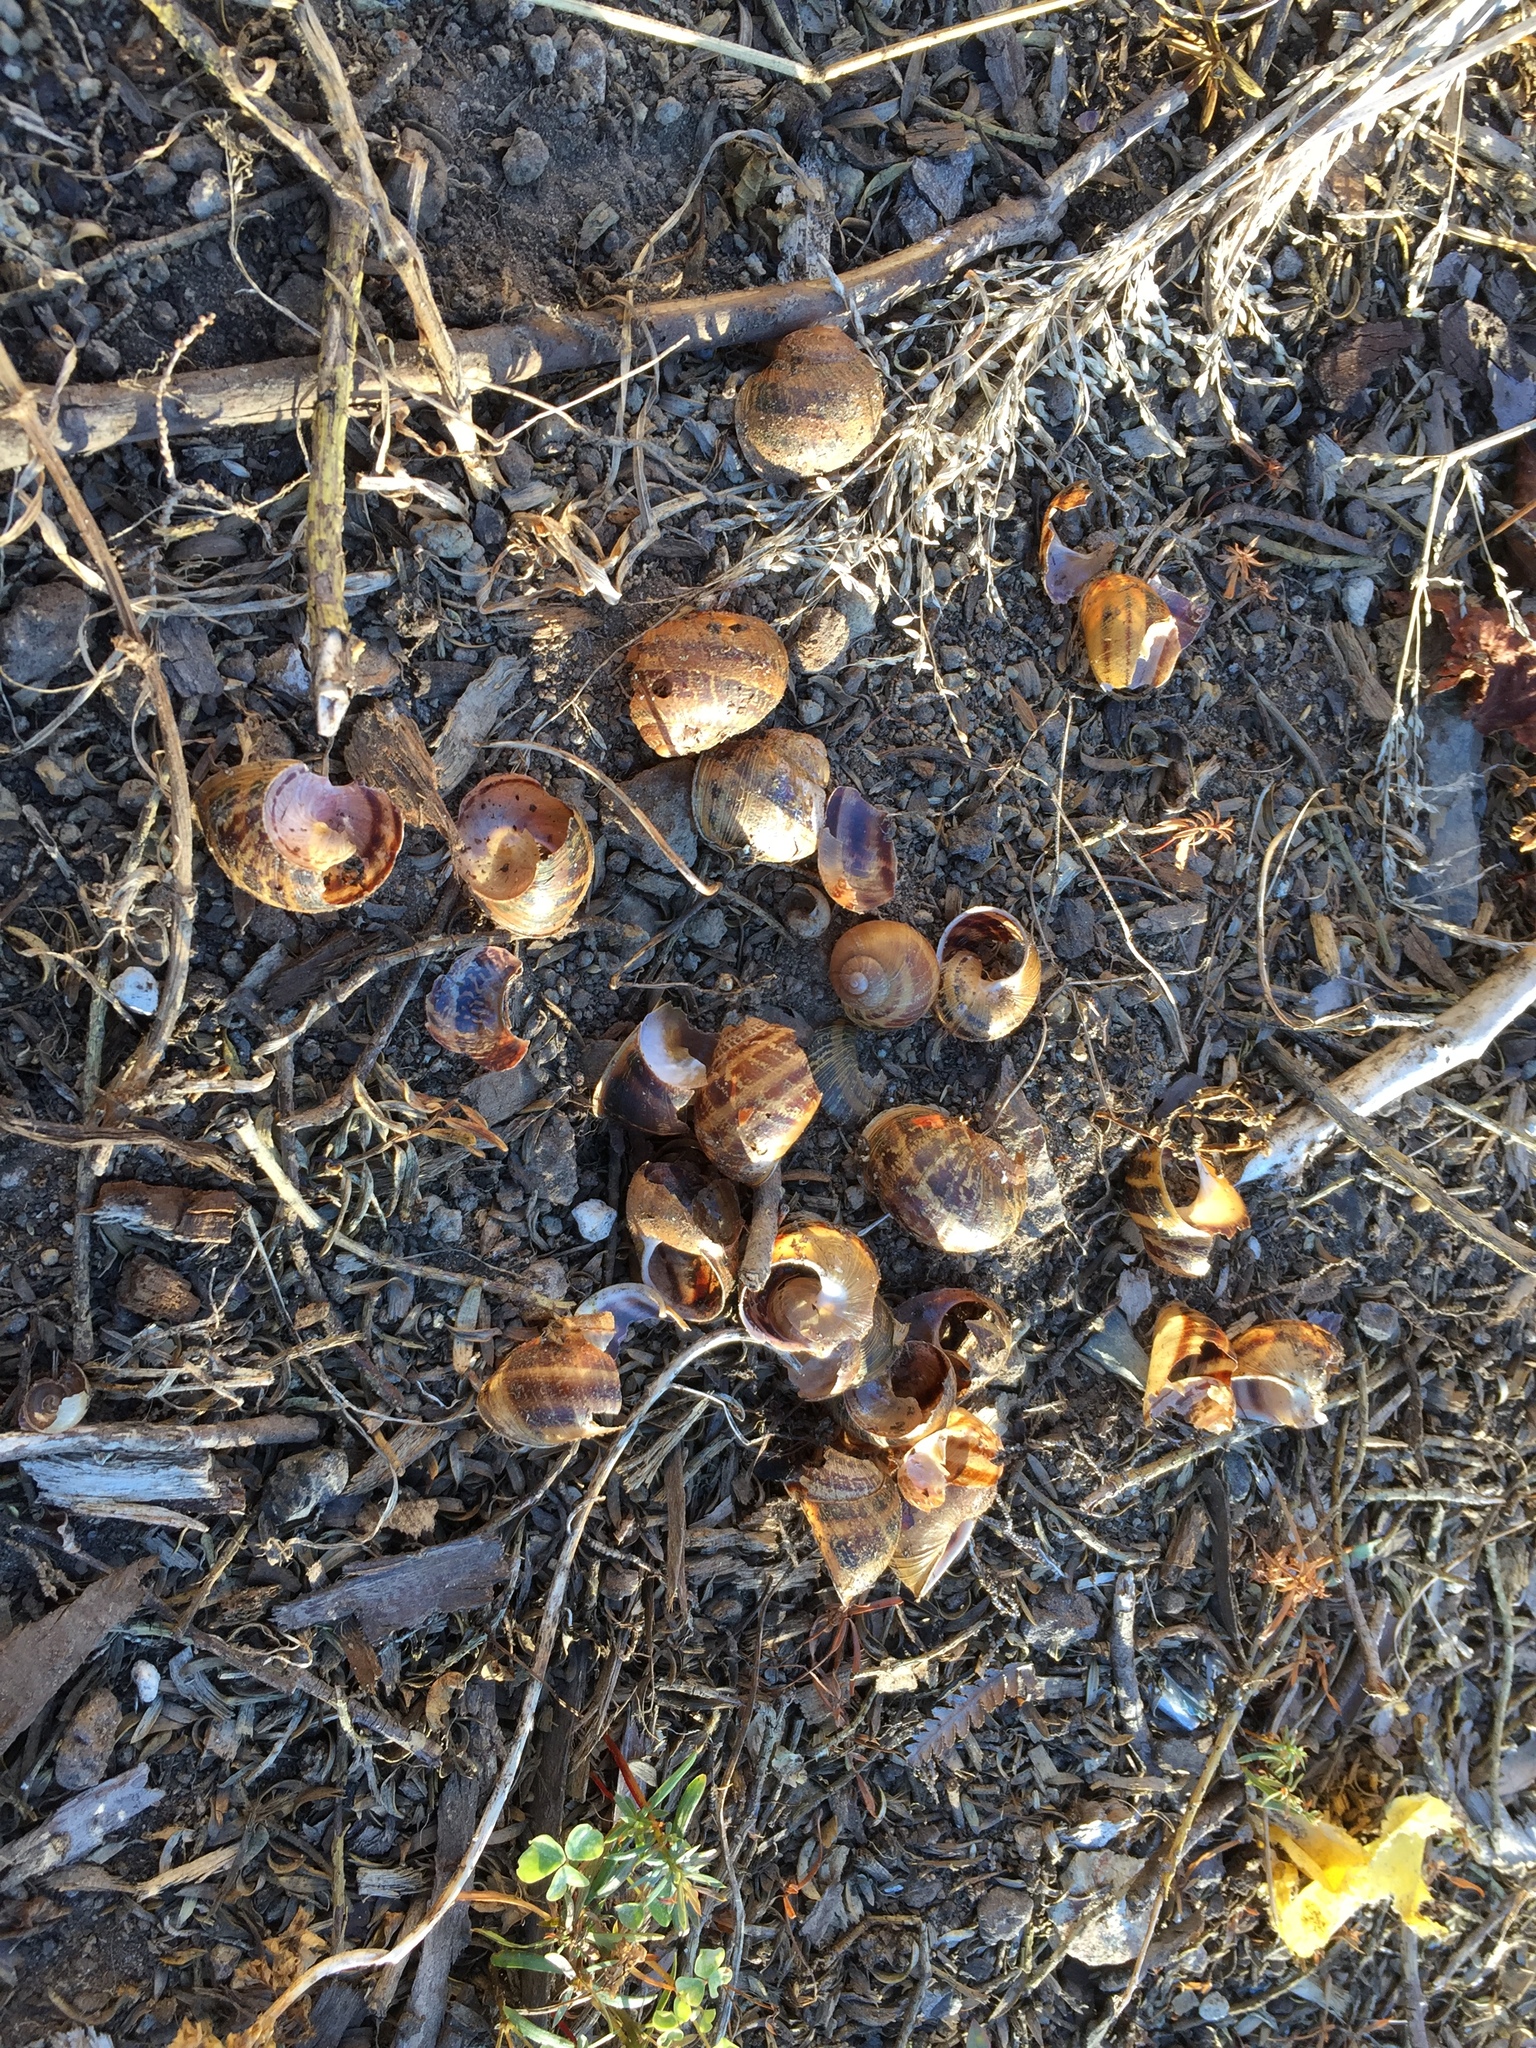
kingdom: Animalia
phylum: Mollusca
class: Gastropoda
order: Stylommatophora
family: Helicidae
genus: Cornu
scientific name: Cornu aspersum
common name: Brown garden snail
